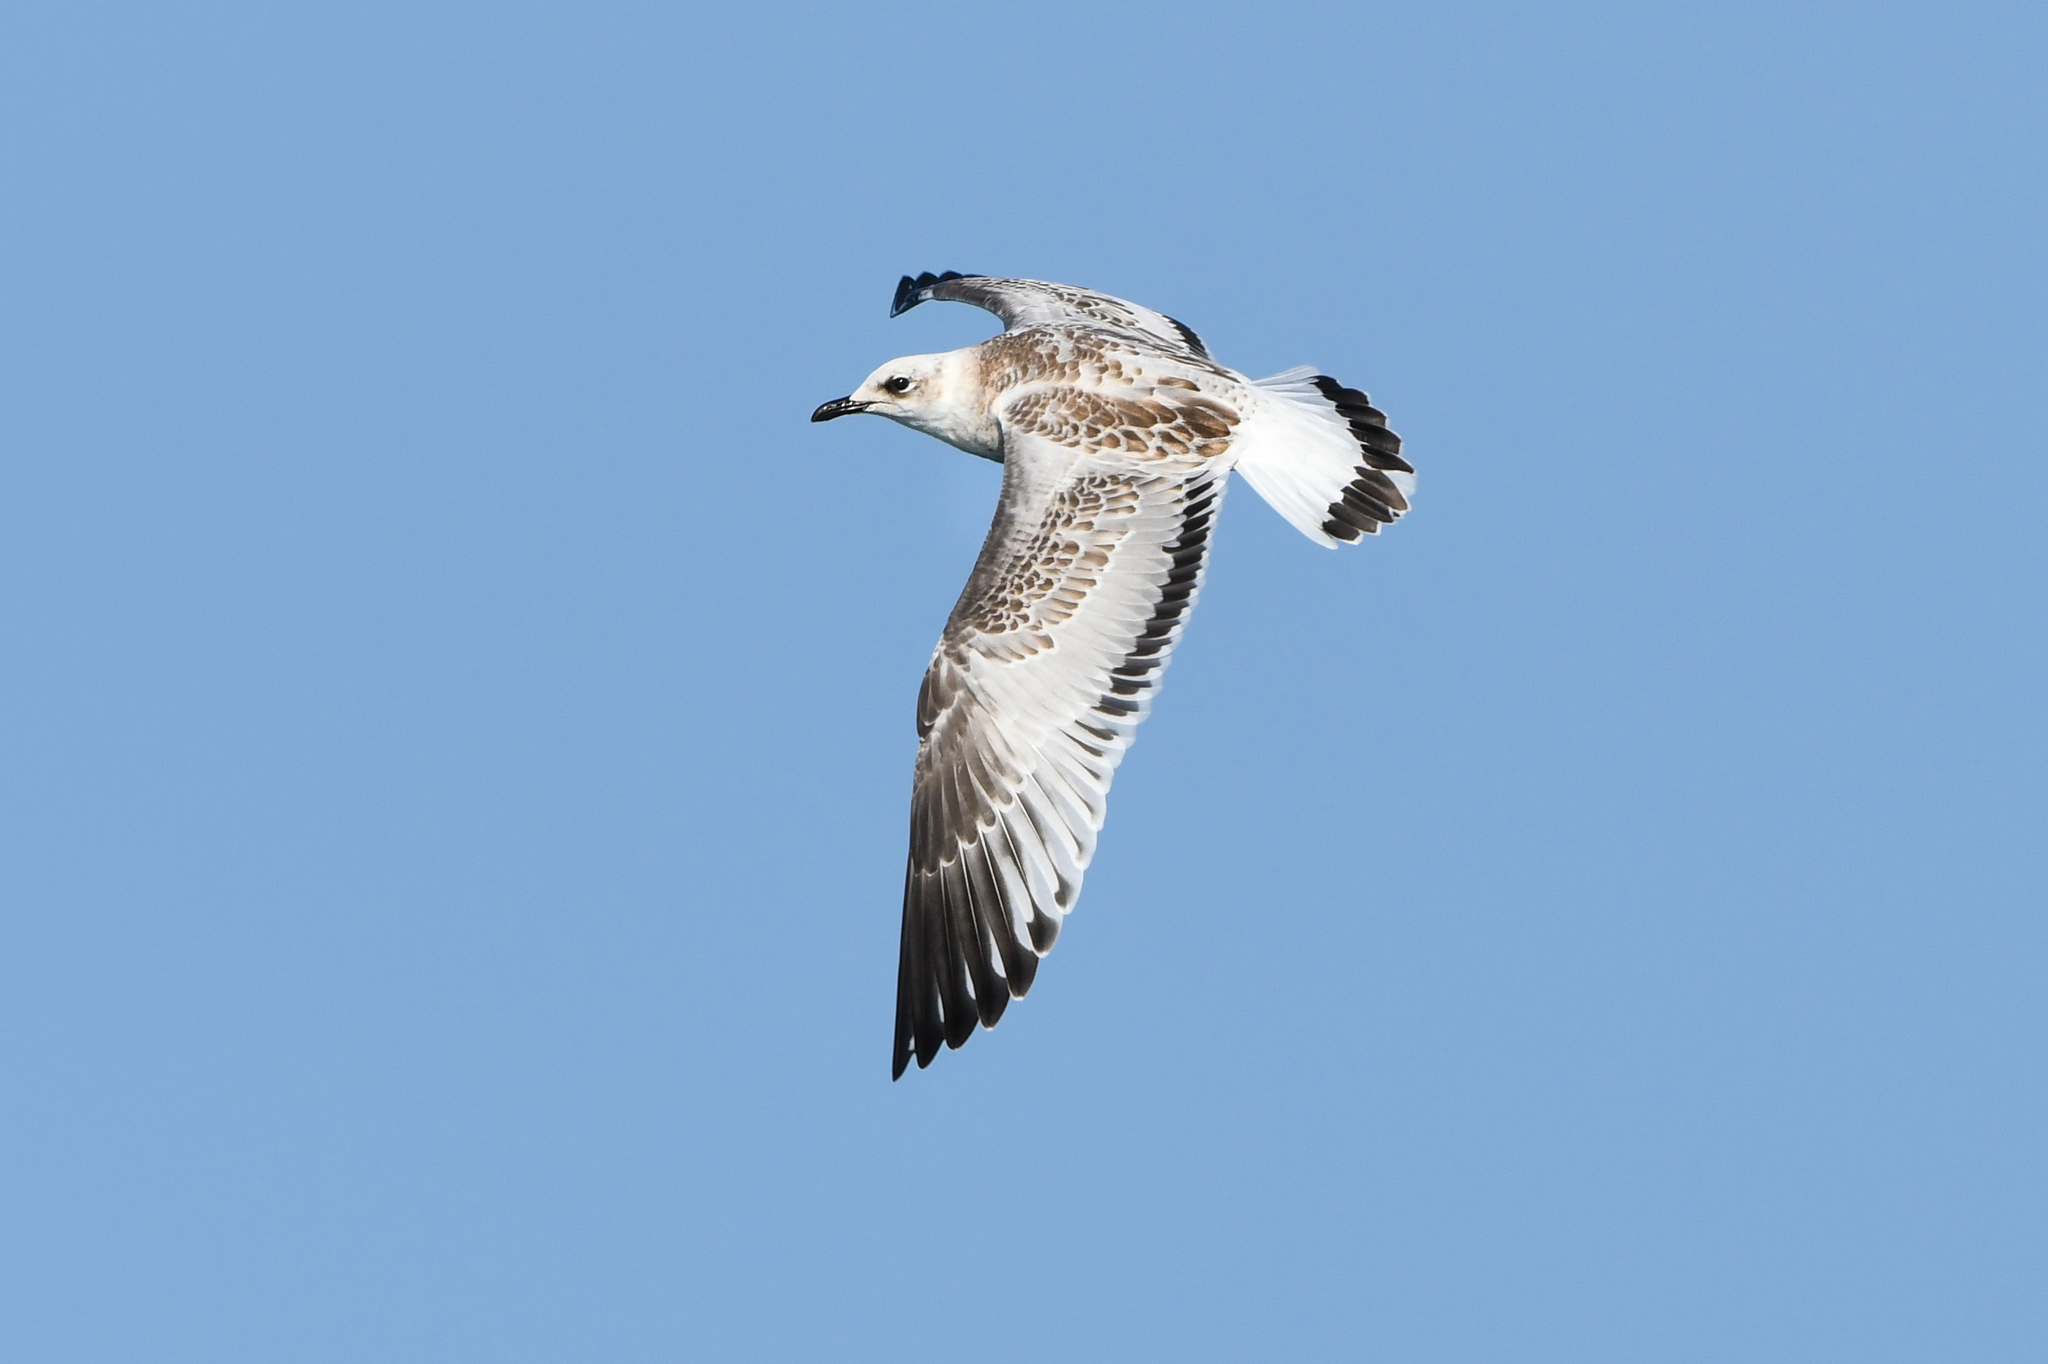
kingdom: Animalia
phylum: Chordata
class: Aves
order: Charadriiformes
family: Laridae
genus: Ichthyaetus
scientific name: Ichthyaetus melanocephalus
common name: Mediterranean gull
